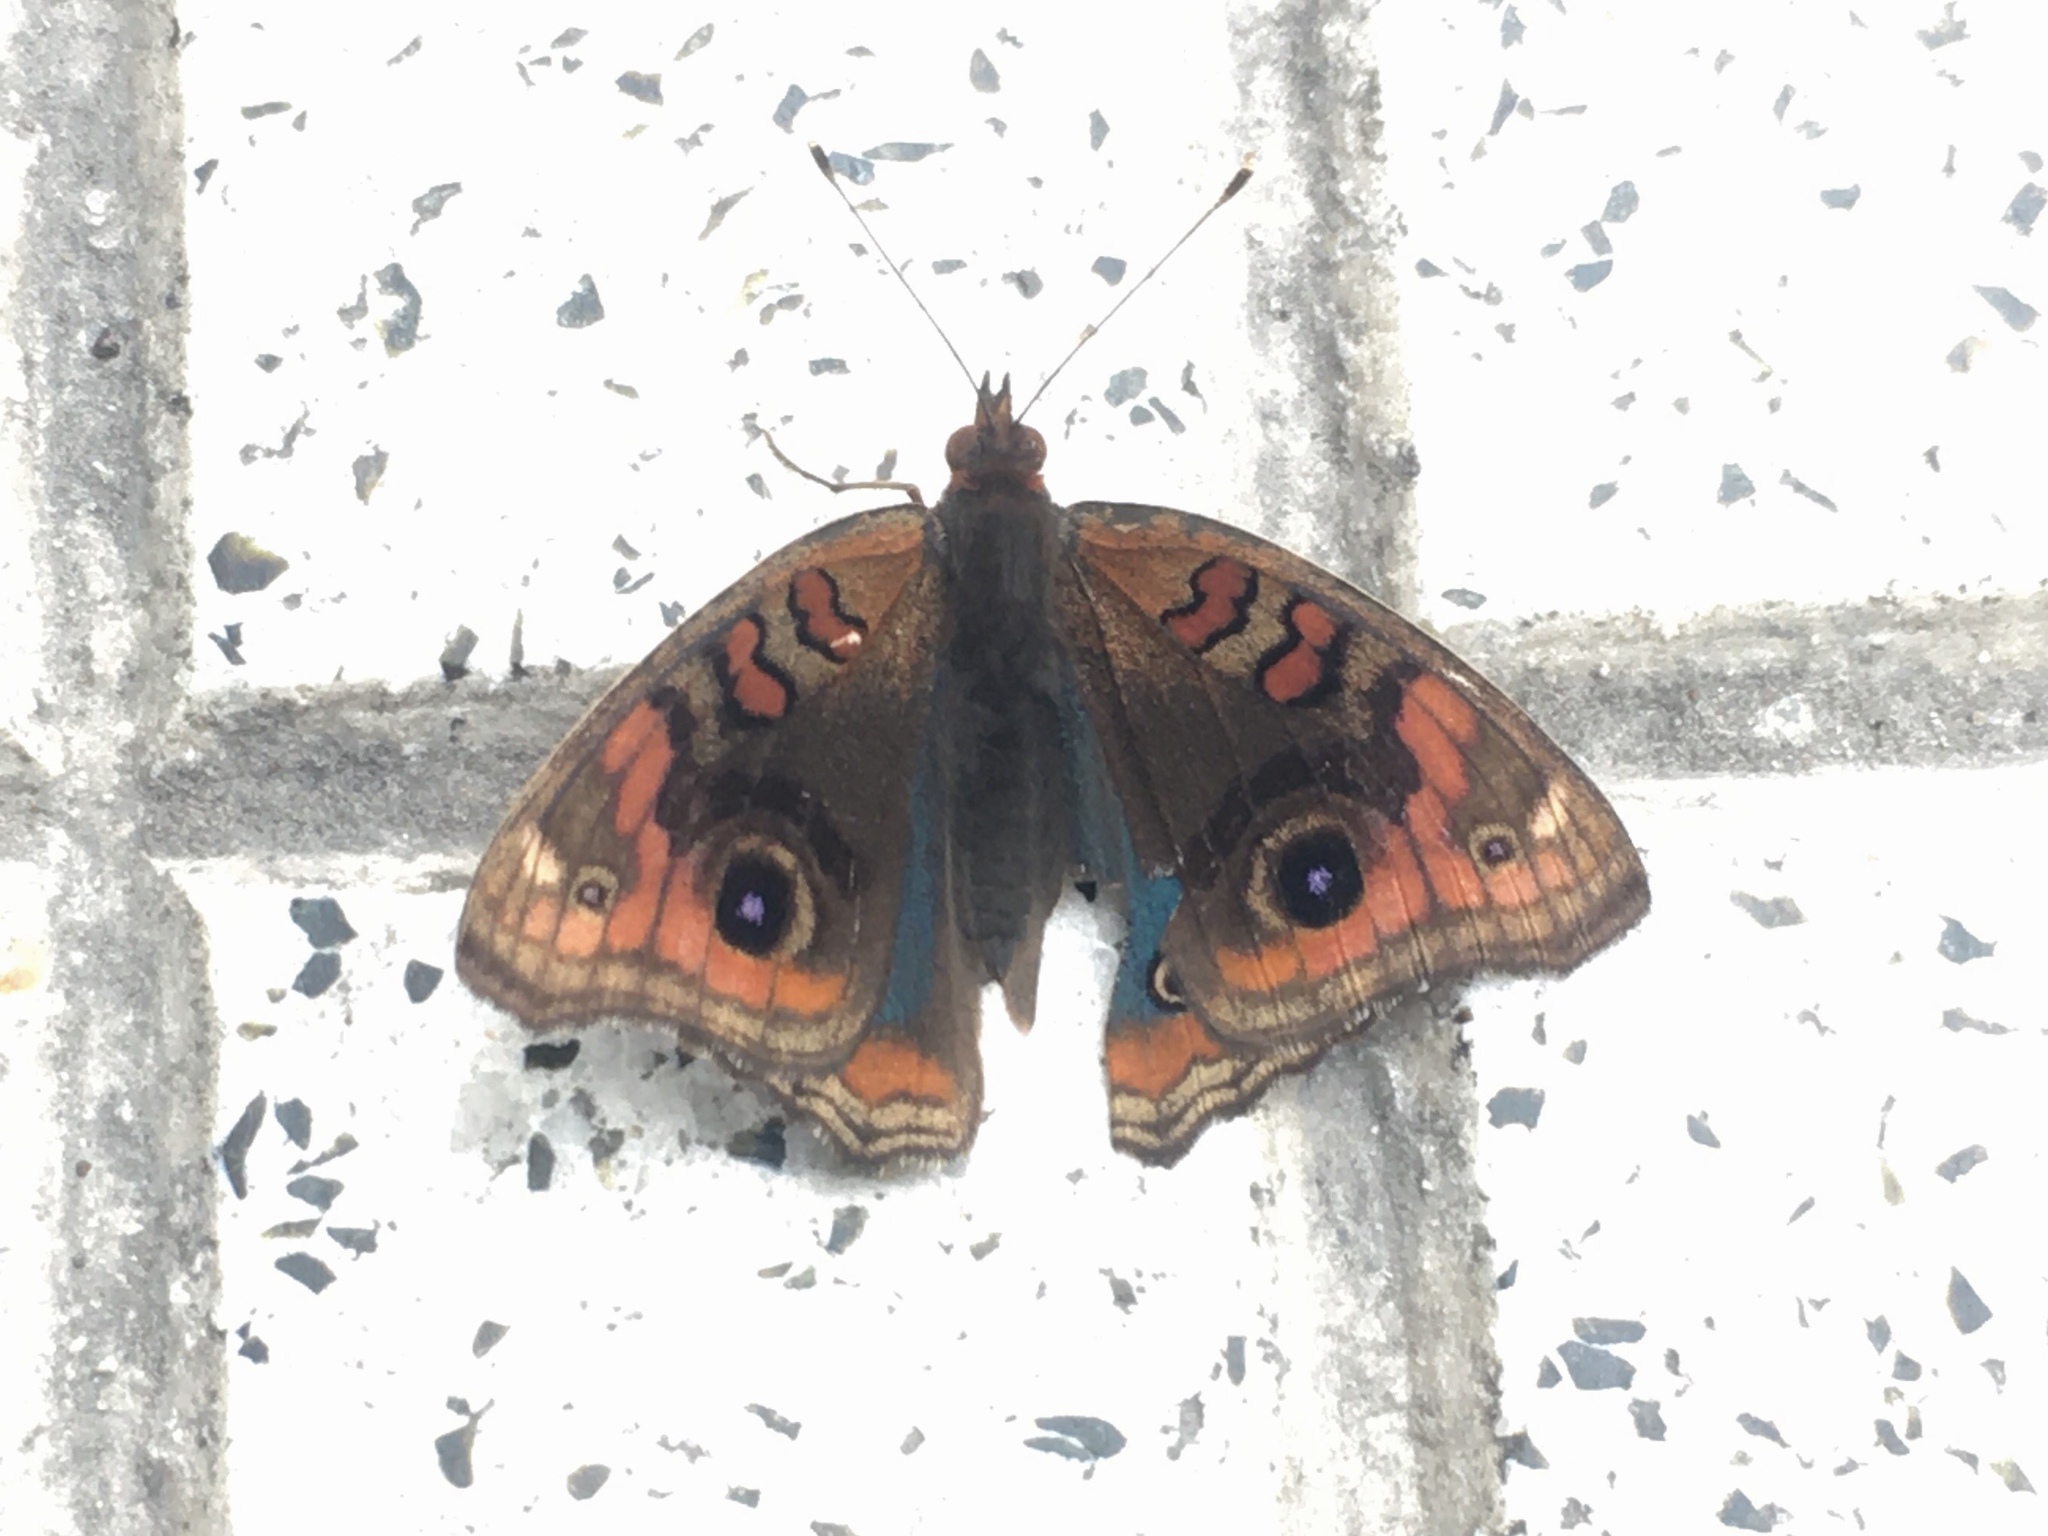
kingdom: Animalia
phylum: Arthropoda
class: Insecta
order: Lepidoptera
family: Nymphalidae
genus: Junonia
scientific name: Junonia lavinia
